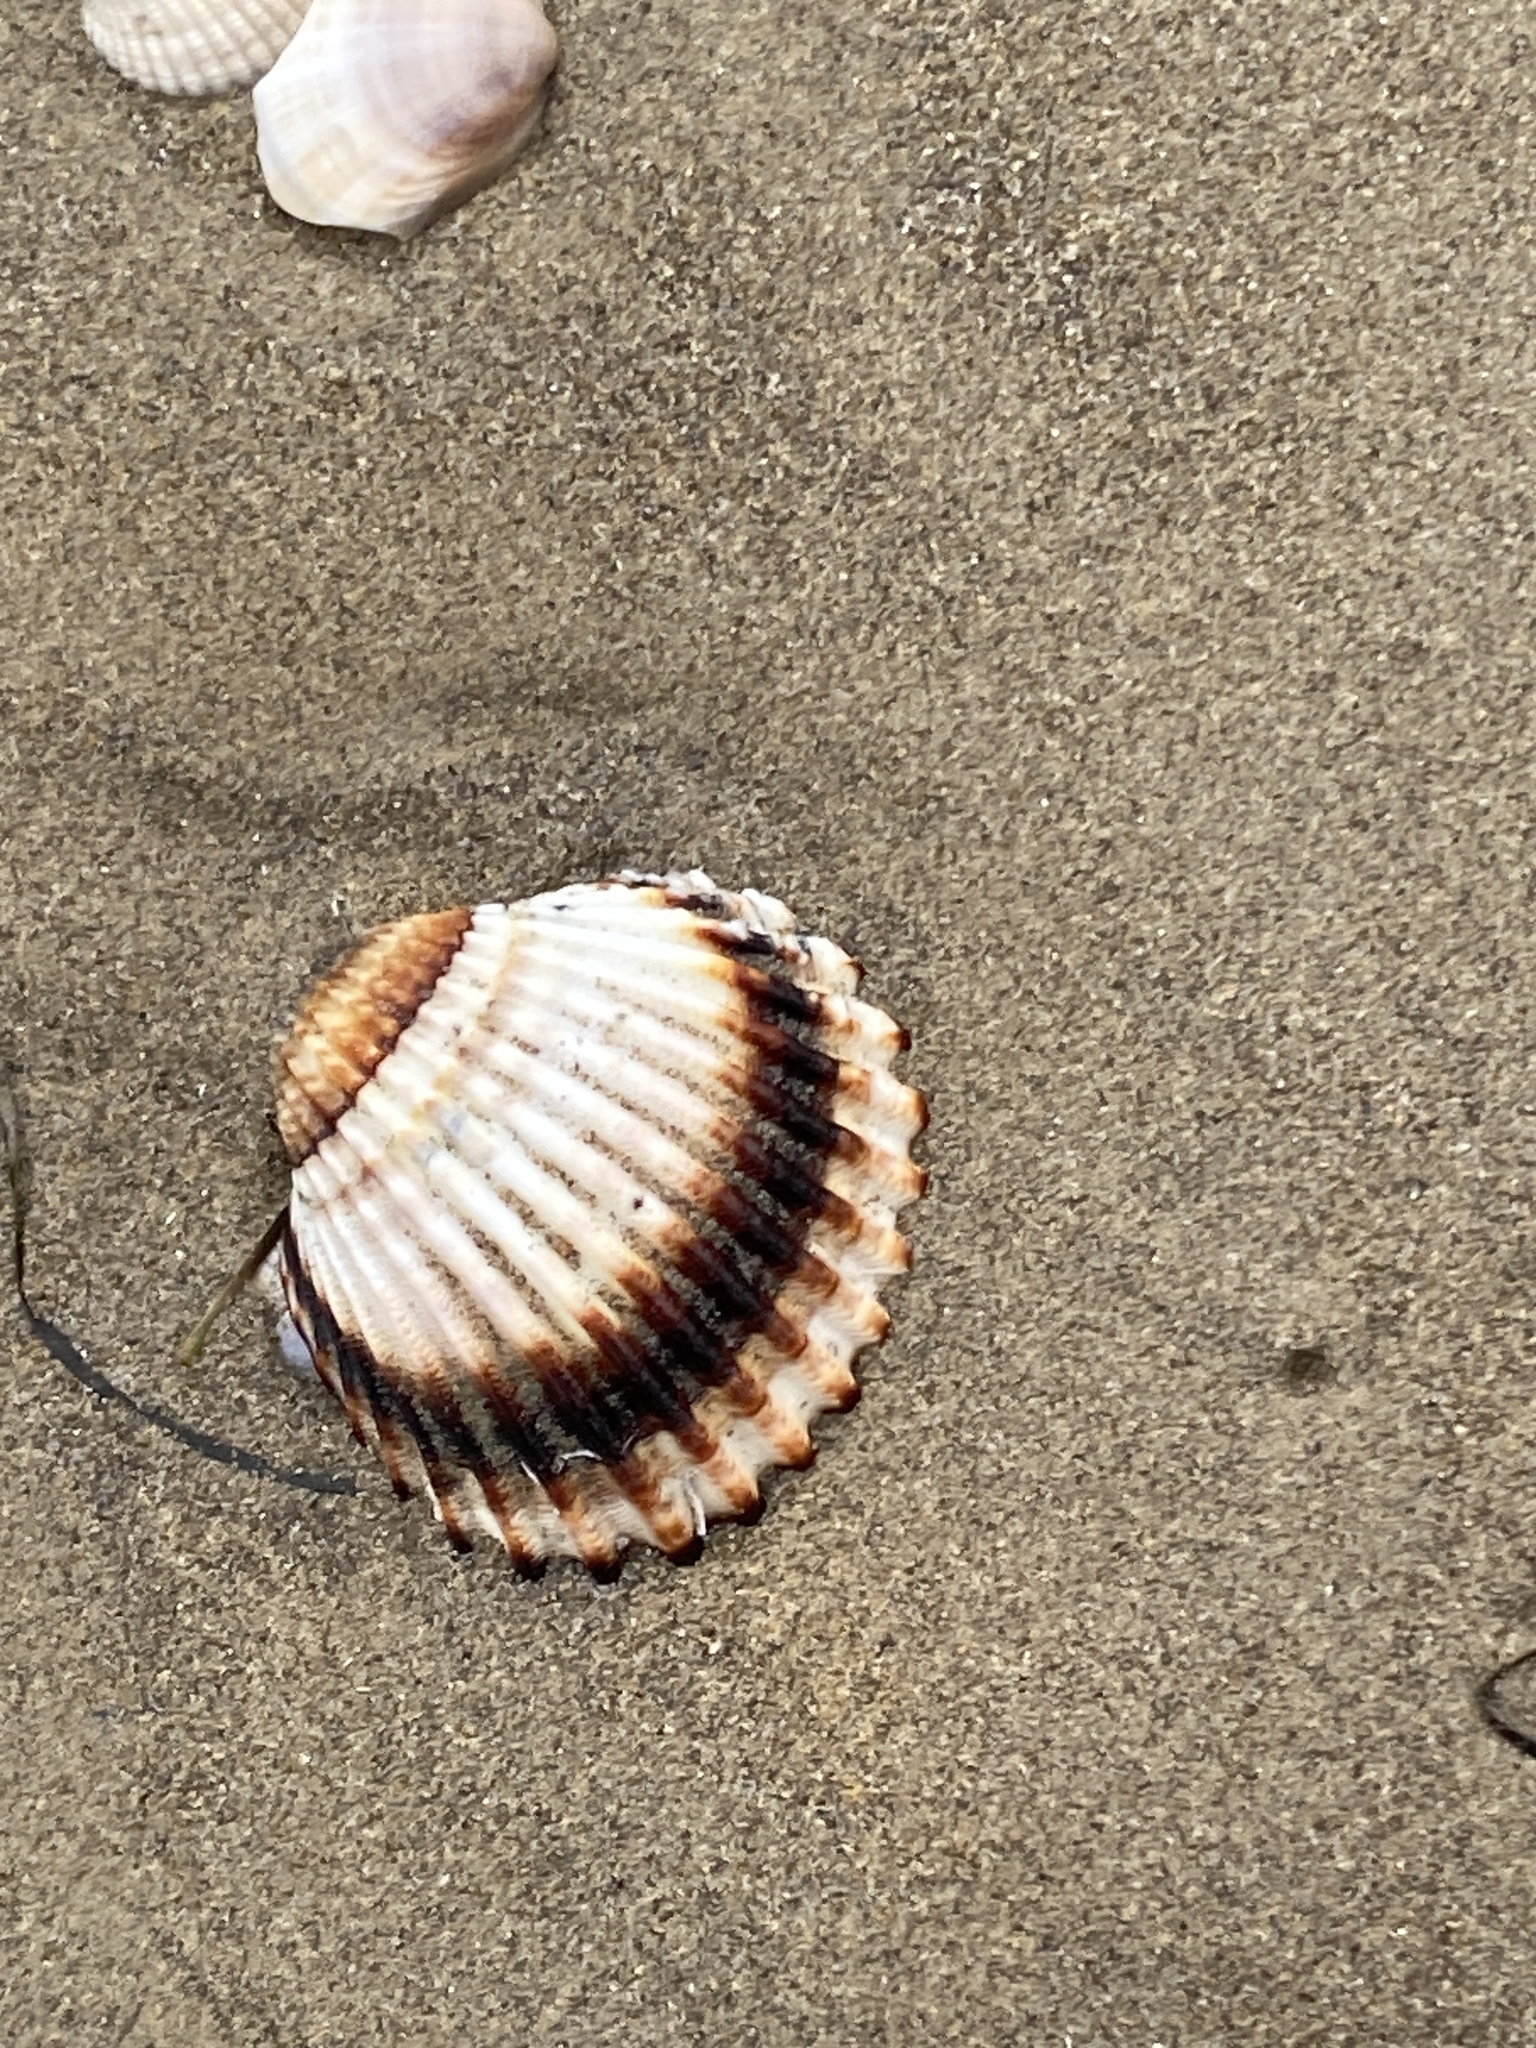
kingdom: Animalia
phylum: Mollusca
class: Bivalvia
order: Cardiida
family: Cardiidae
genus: Acanthocardia
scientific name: Acanthocardia tuberculata
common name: Rough cockle
